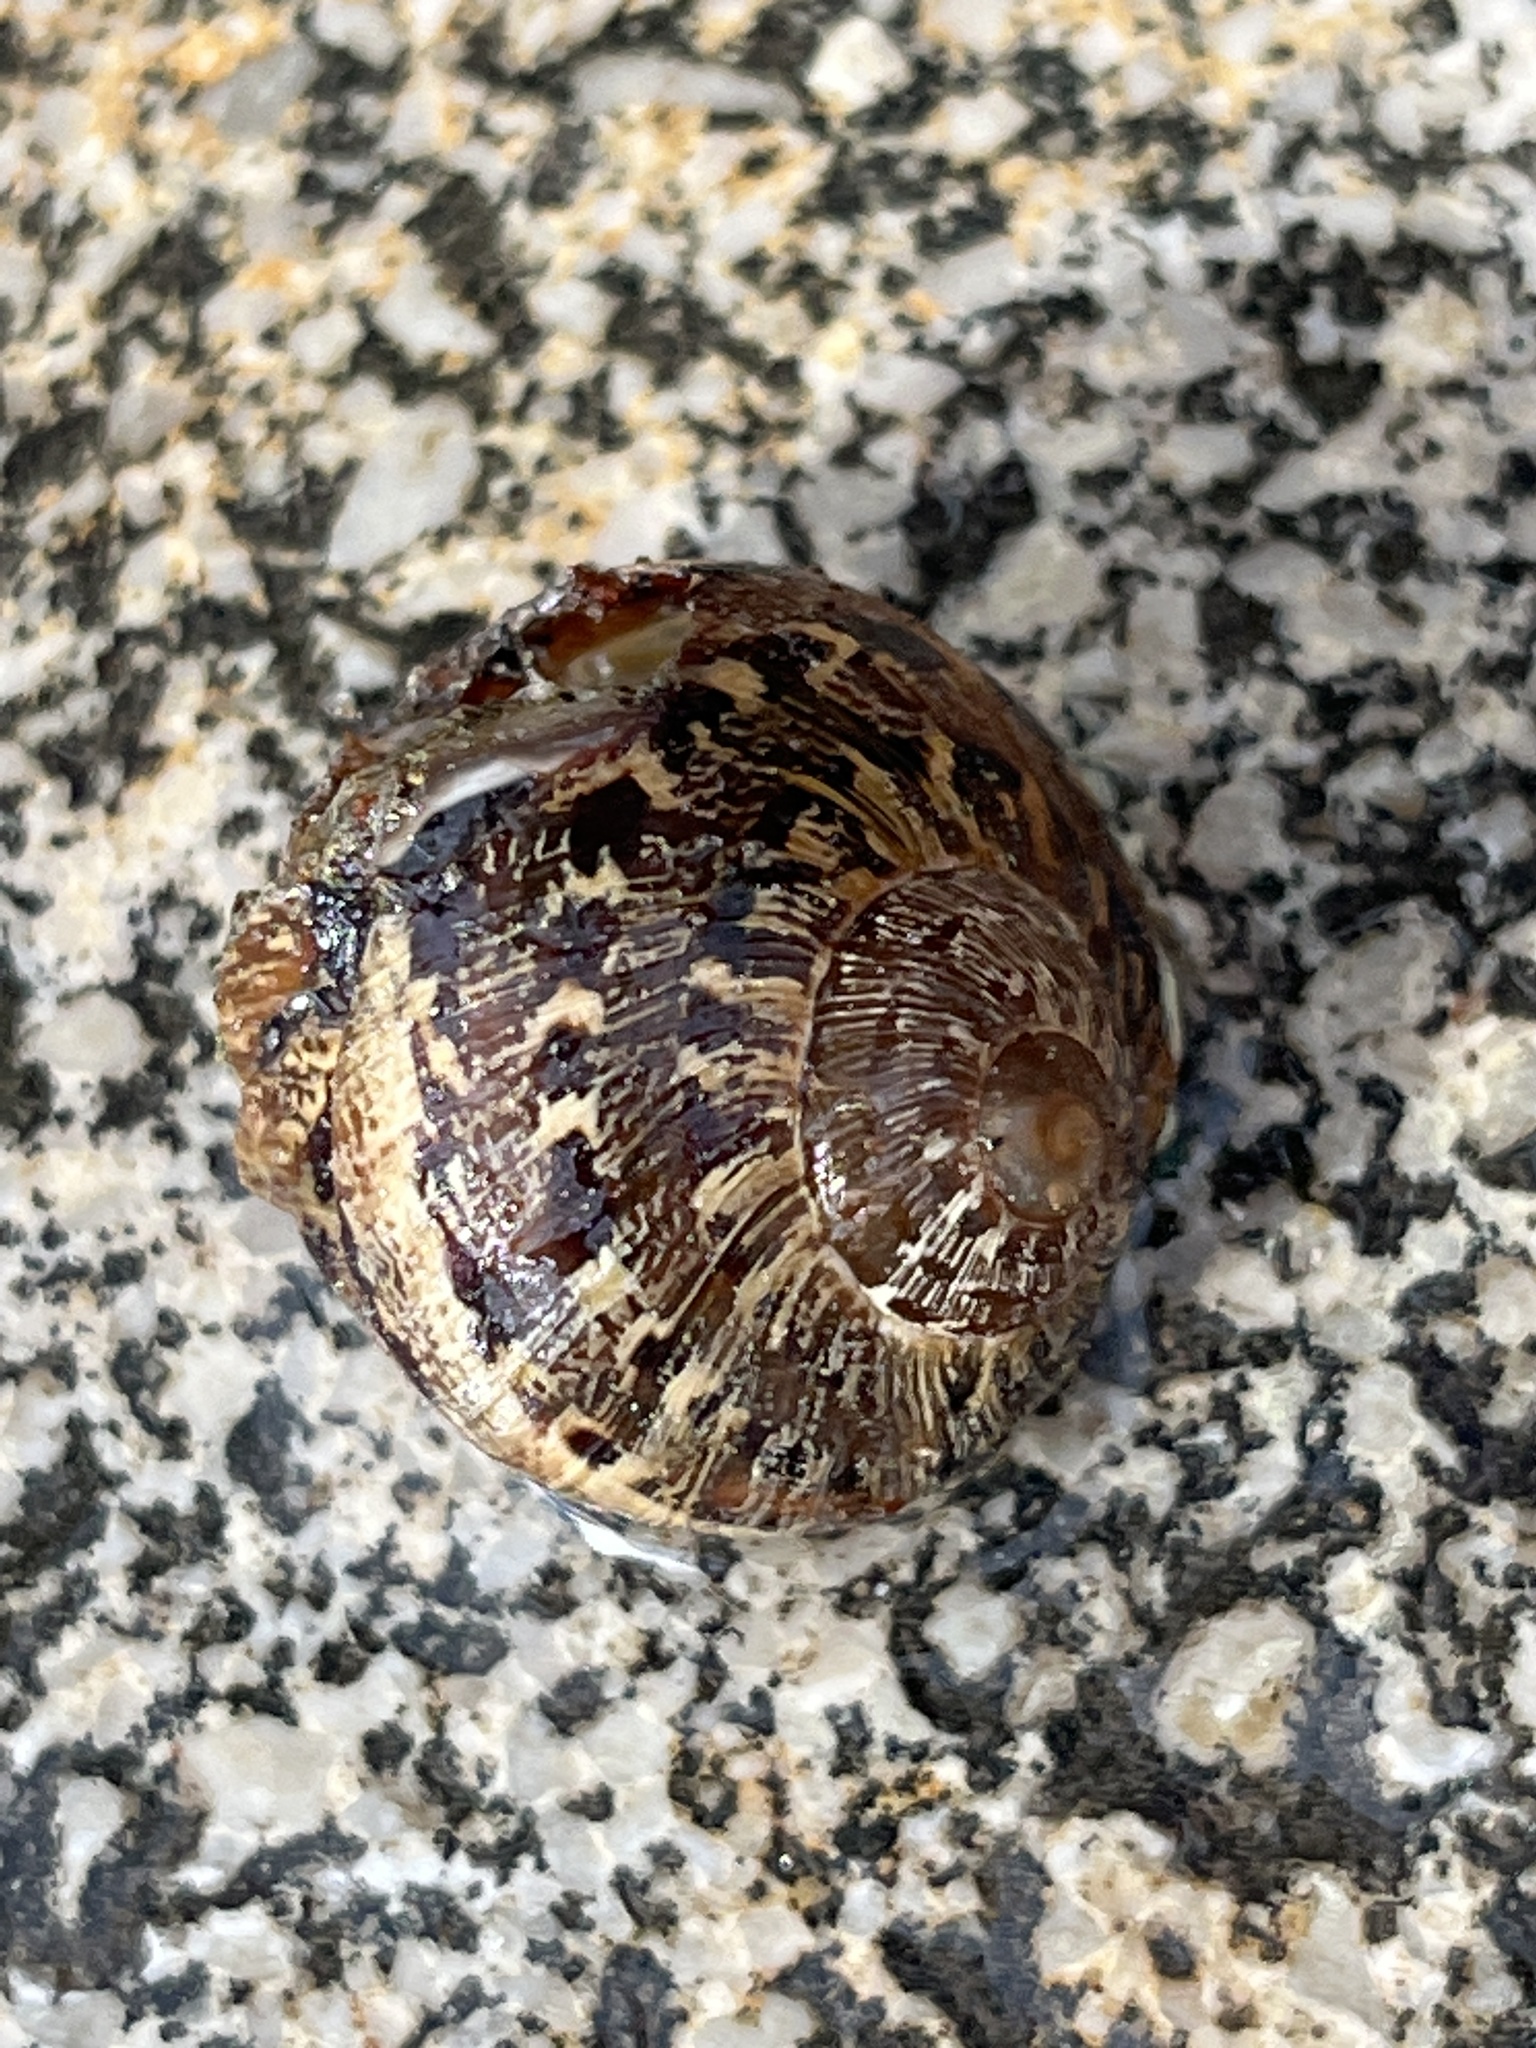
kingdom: Animalia
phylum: Mollusca
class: Gastropoda
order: Stylommatophora
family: Helicidae
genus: Cornu
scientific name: Cornu aspersum
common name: Brown garden snail
